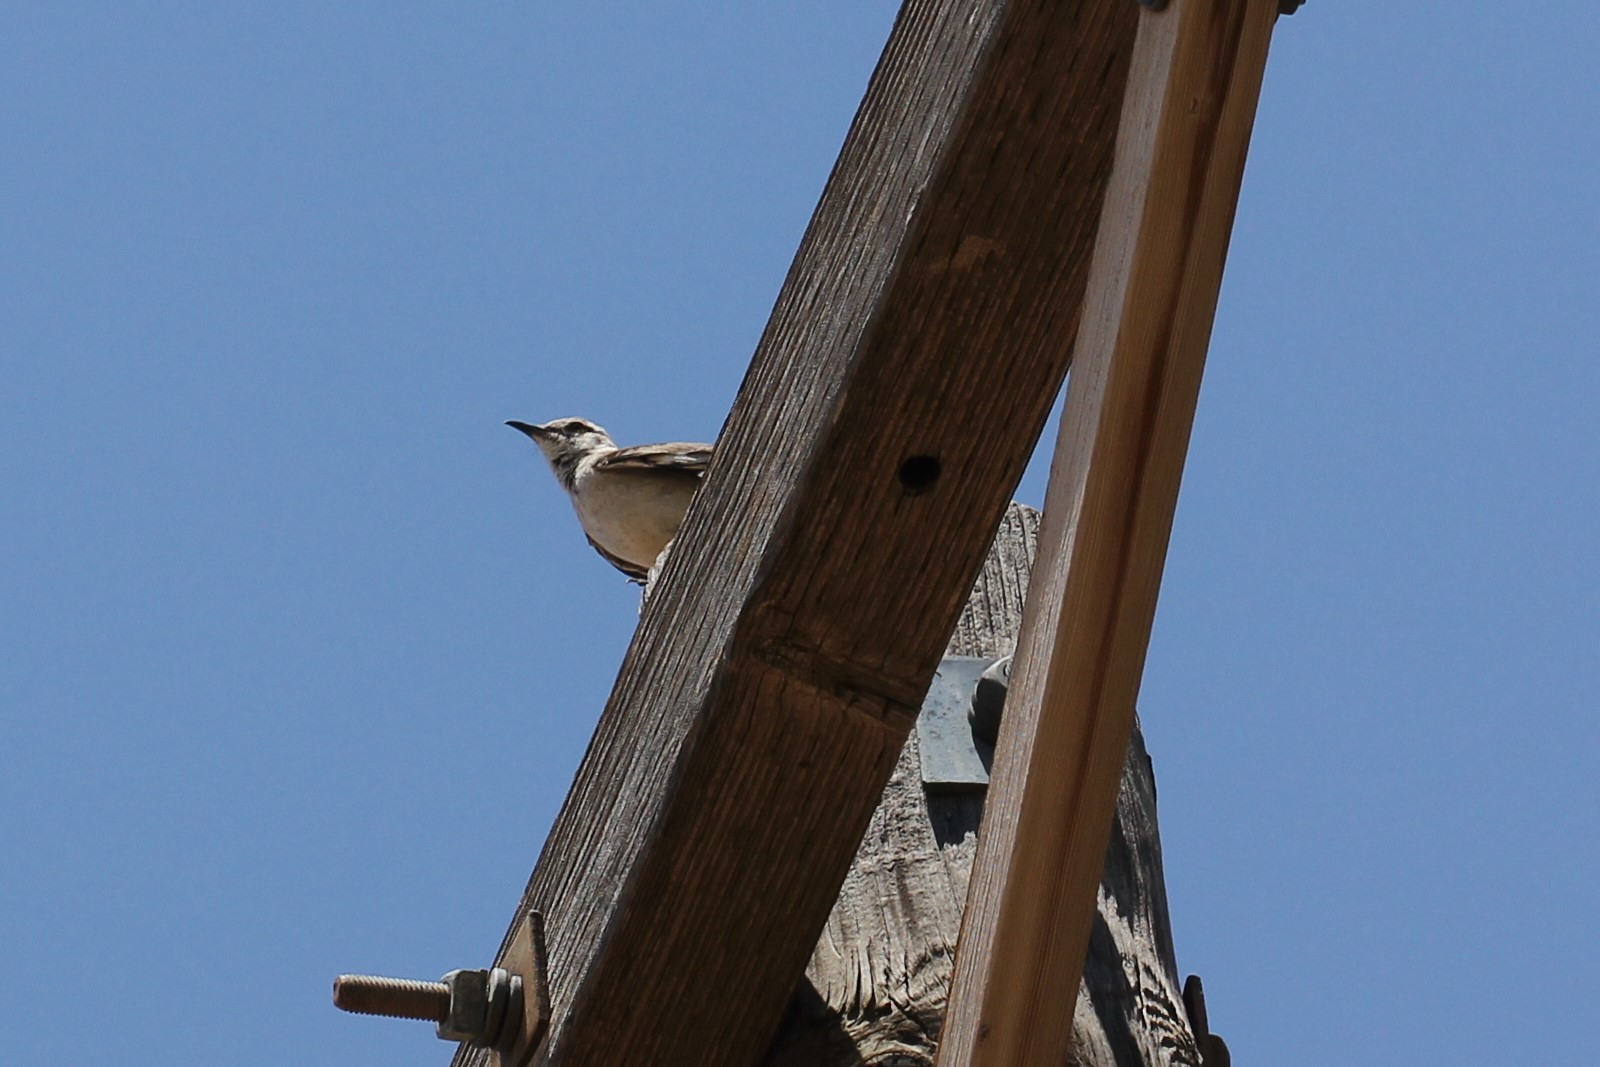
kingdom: Animalia
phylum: Chordata
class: Aves
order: Passeriformes
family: Mimidae
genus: Mimus
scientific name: Mimus polyglottos
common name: Northern mockingbird
